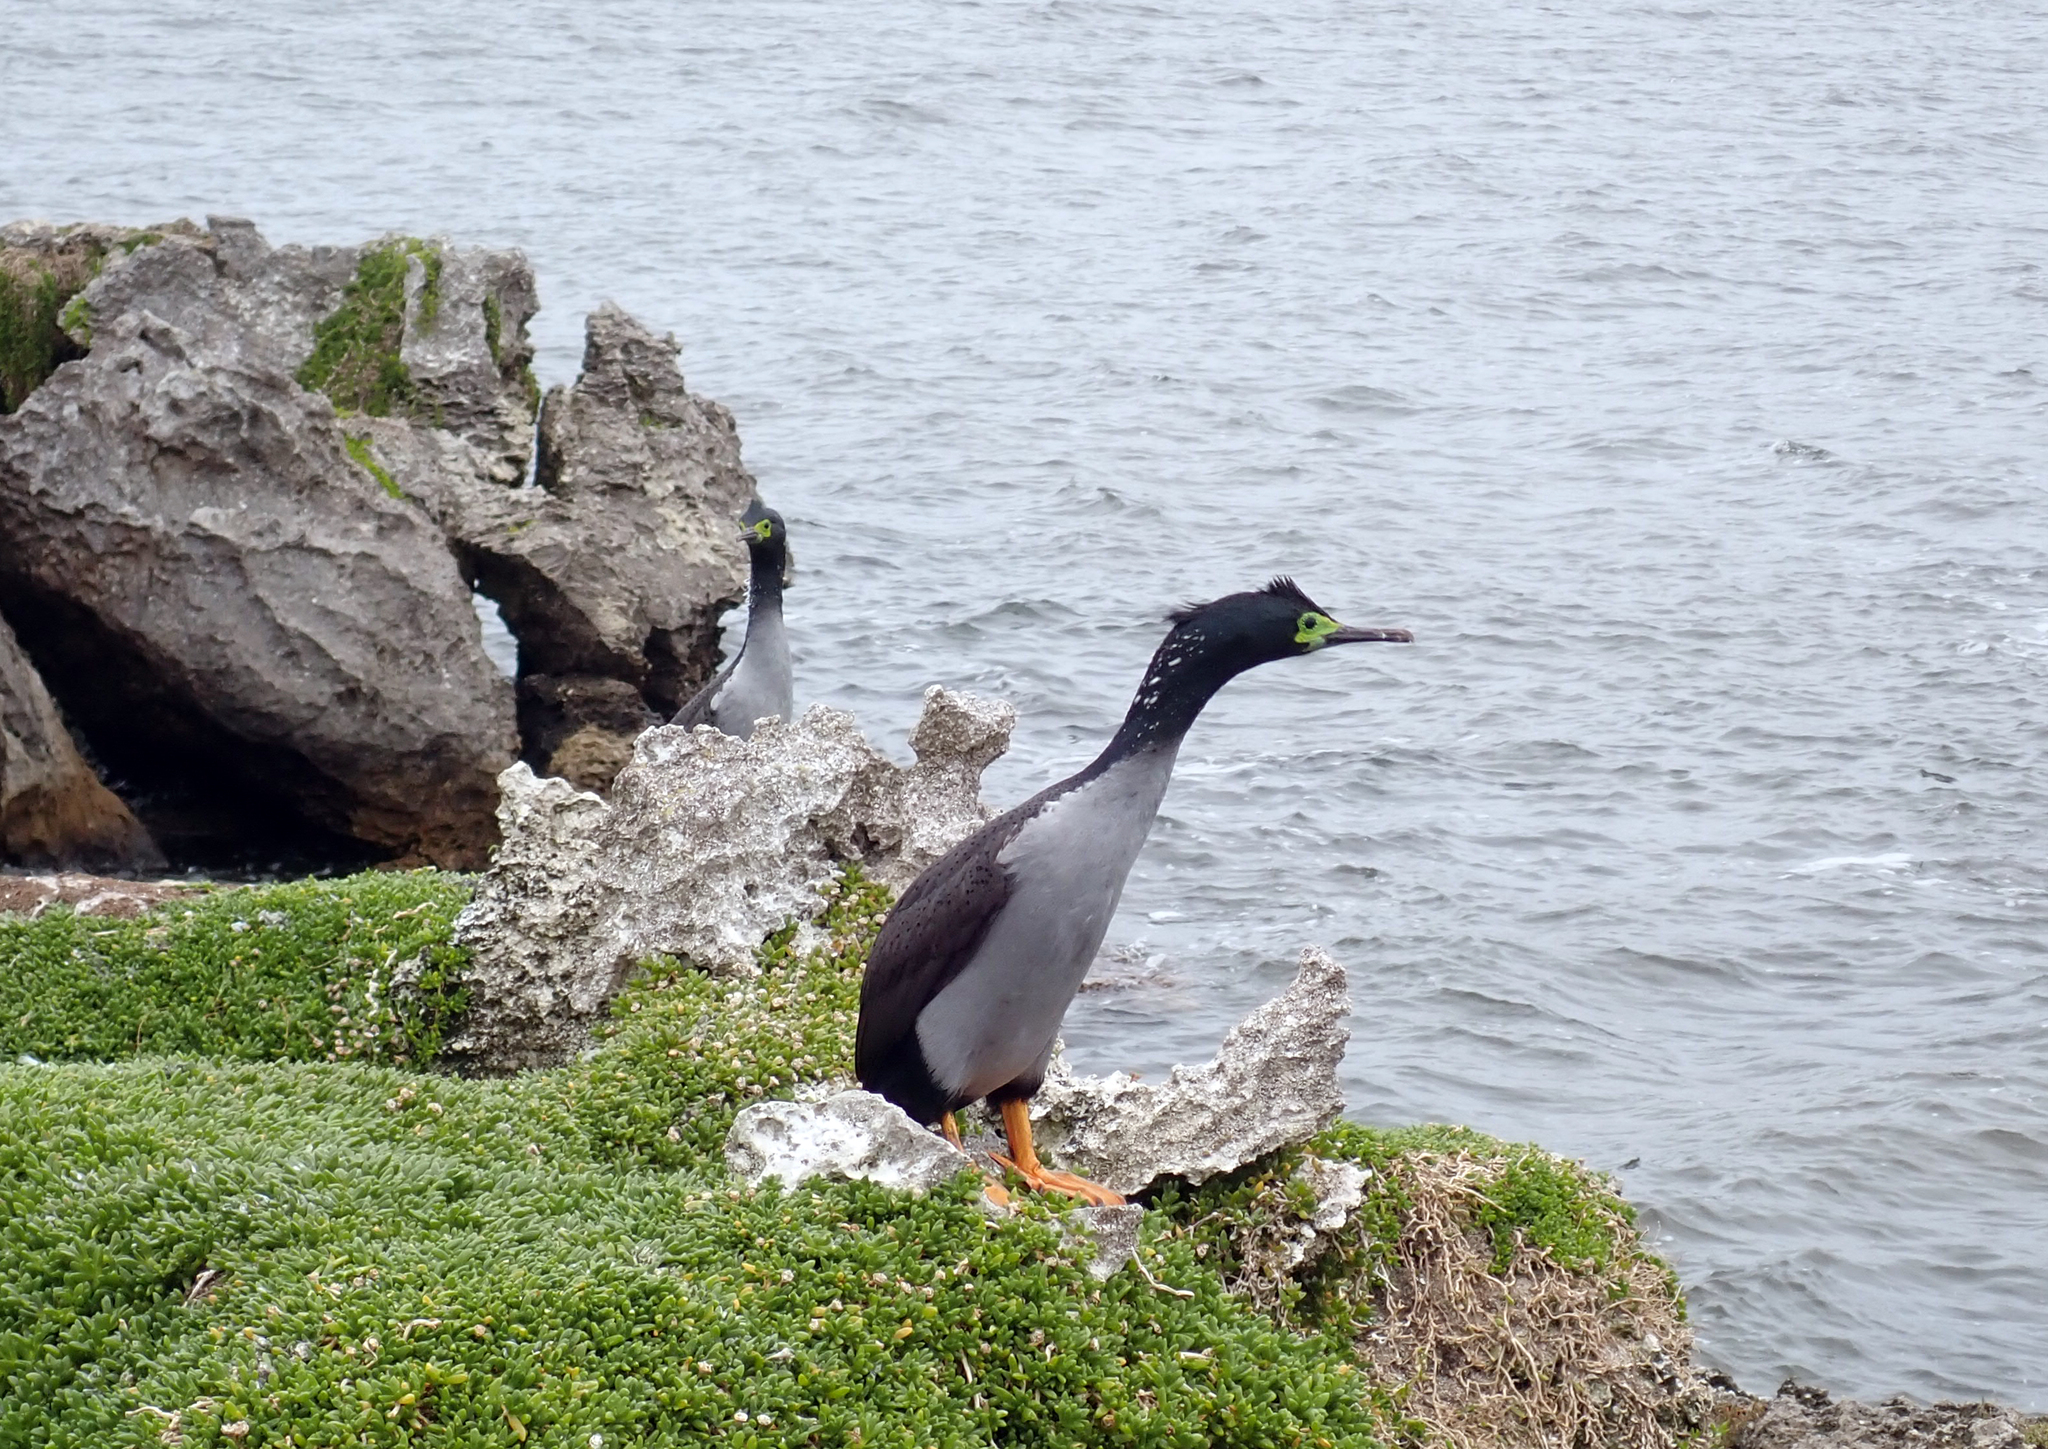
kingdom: Animalia
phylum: Chordata
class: Aves
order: Suliformes
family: Phalacrocoracidae
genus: Phalacrocorax
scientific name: Phalacrocorax featherstoni
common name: Pitt shag
